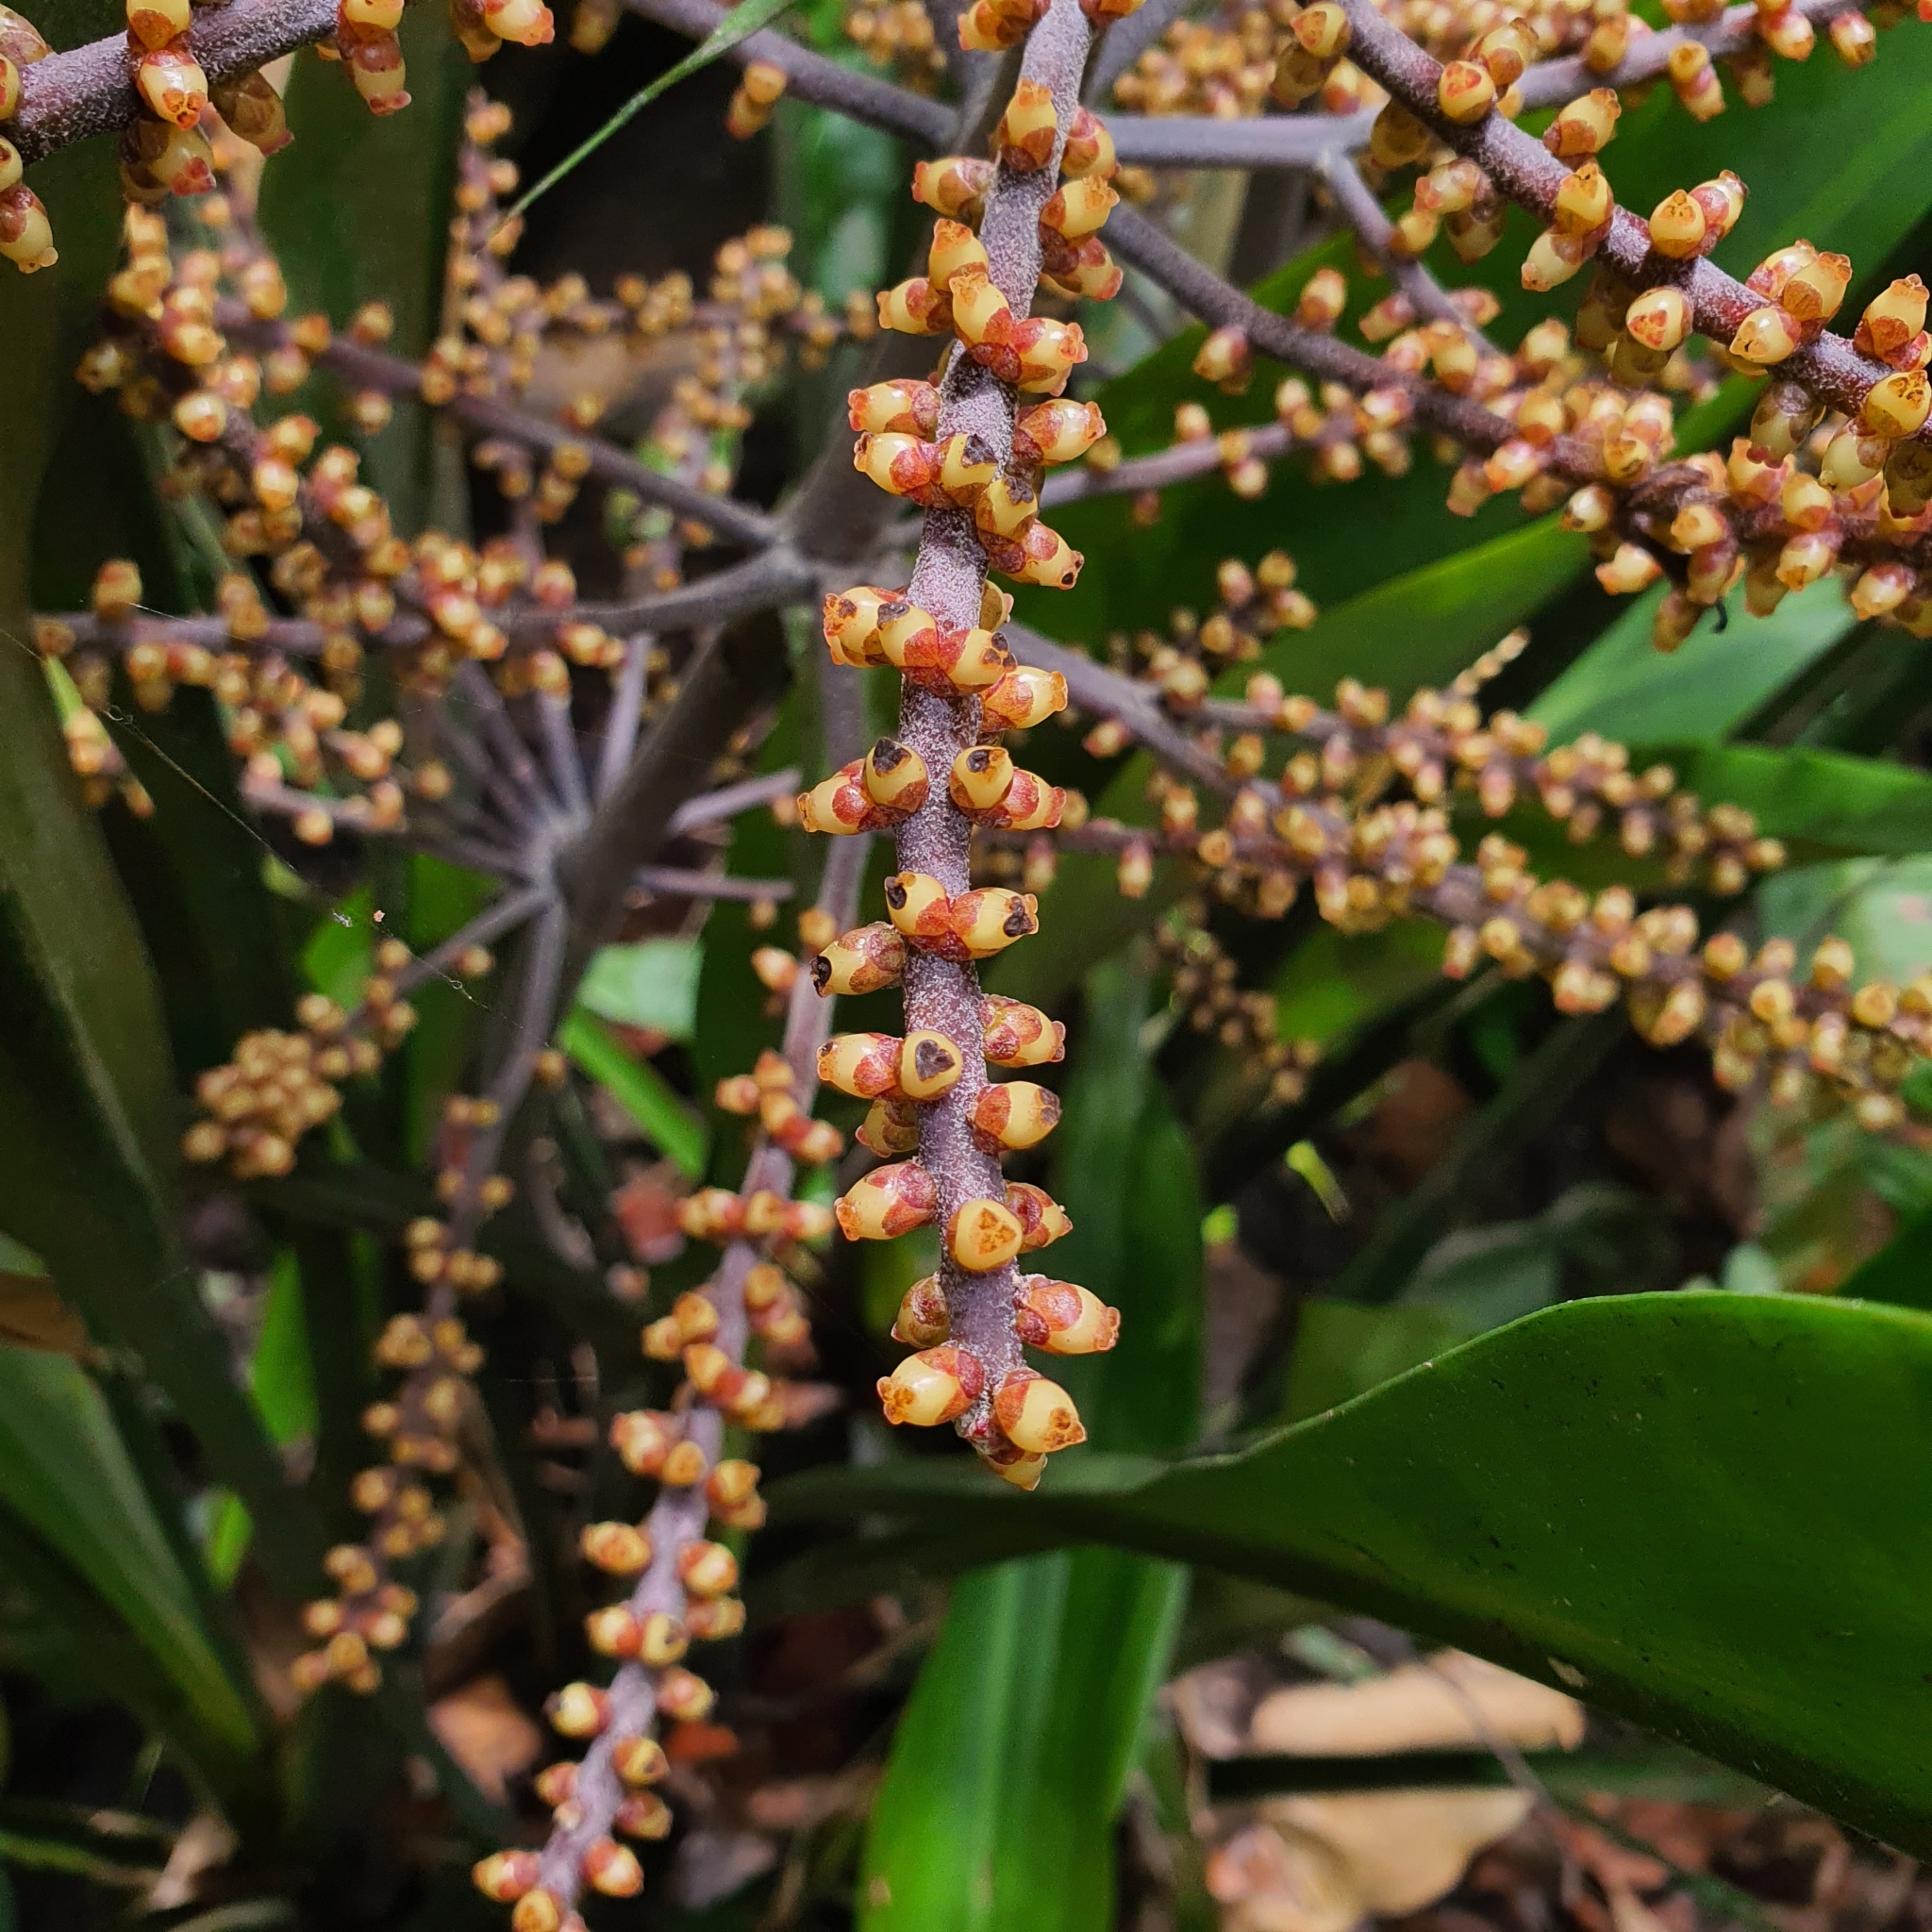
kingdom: Plantae
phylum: Tracheophyta
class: Liliopsida
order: Commelinales
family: Hanguanaceae
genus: Hanguana
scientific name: Hanguana rubinea
